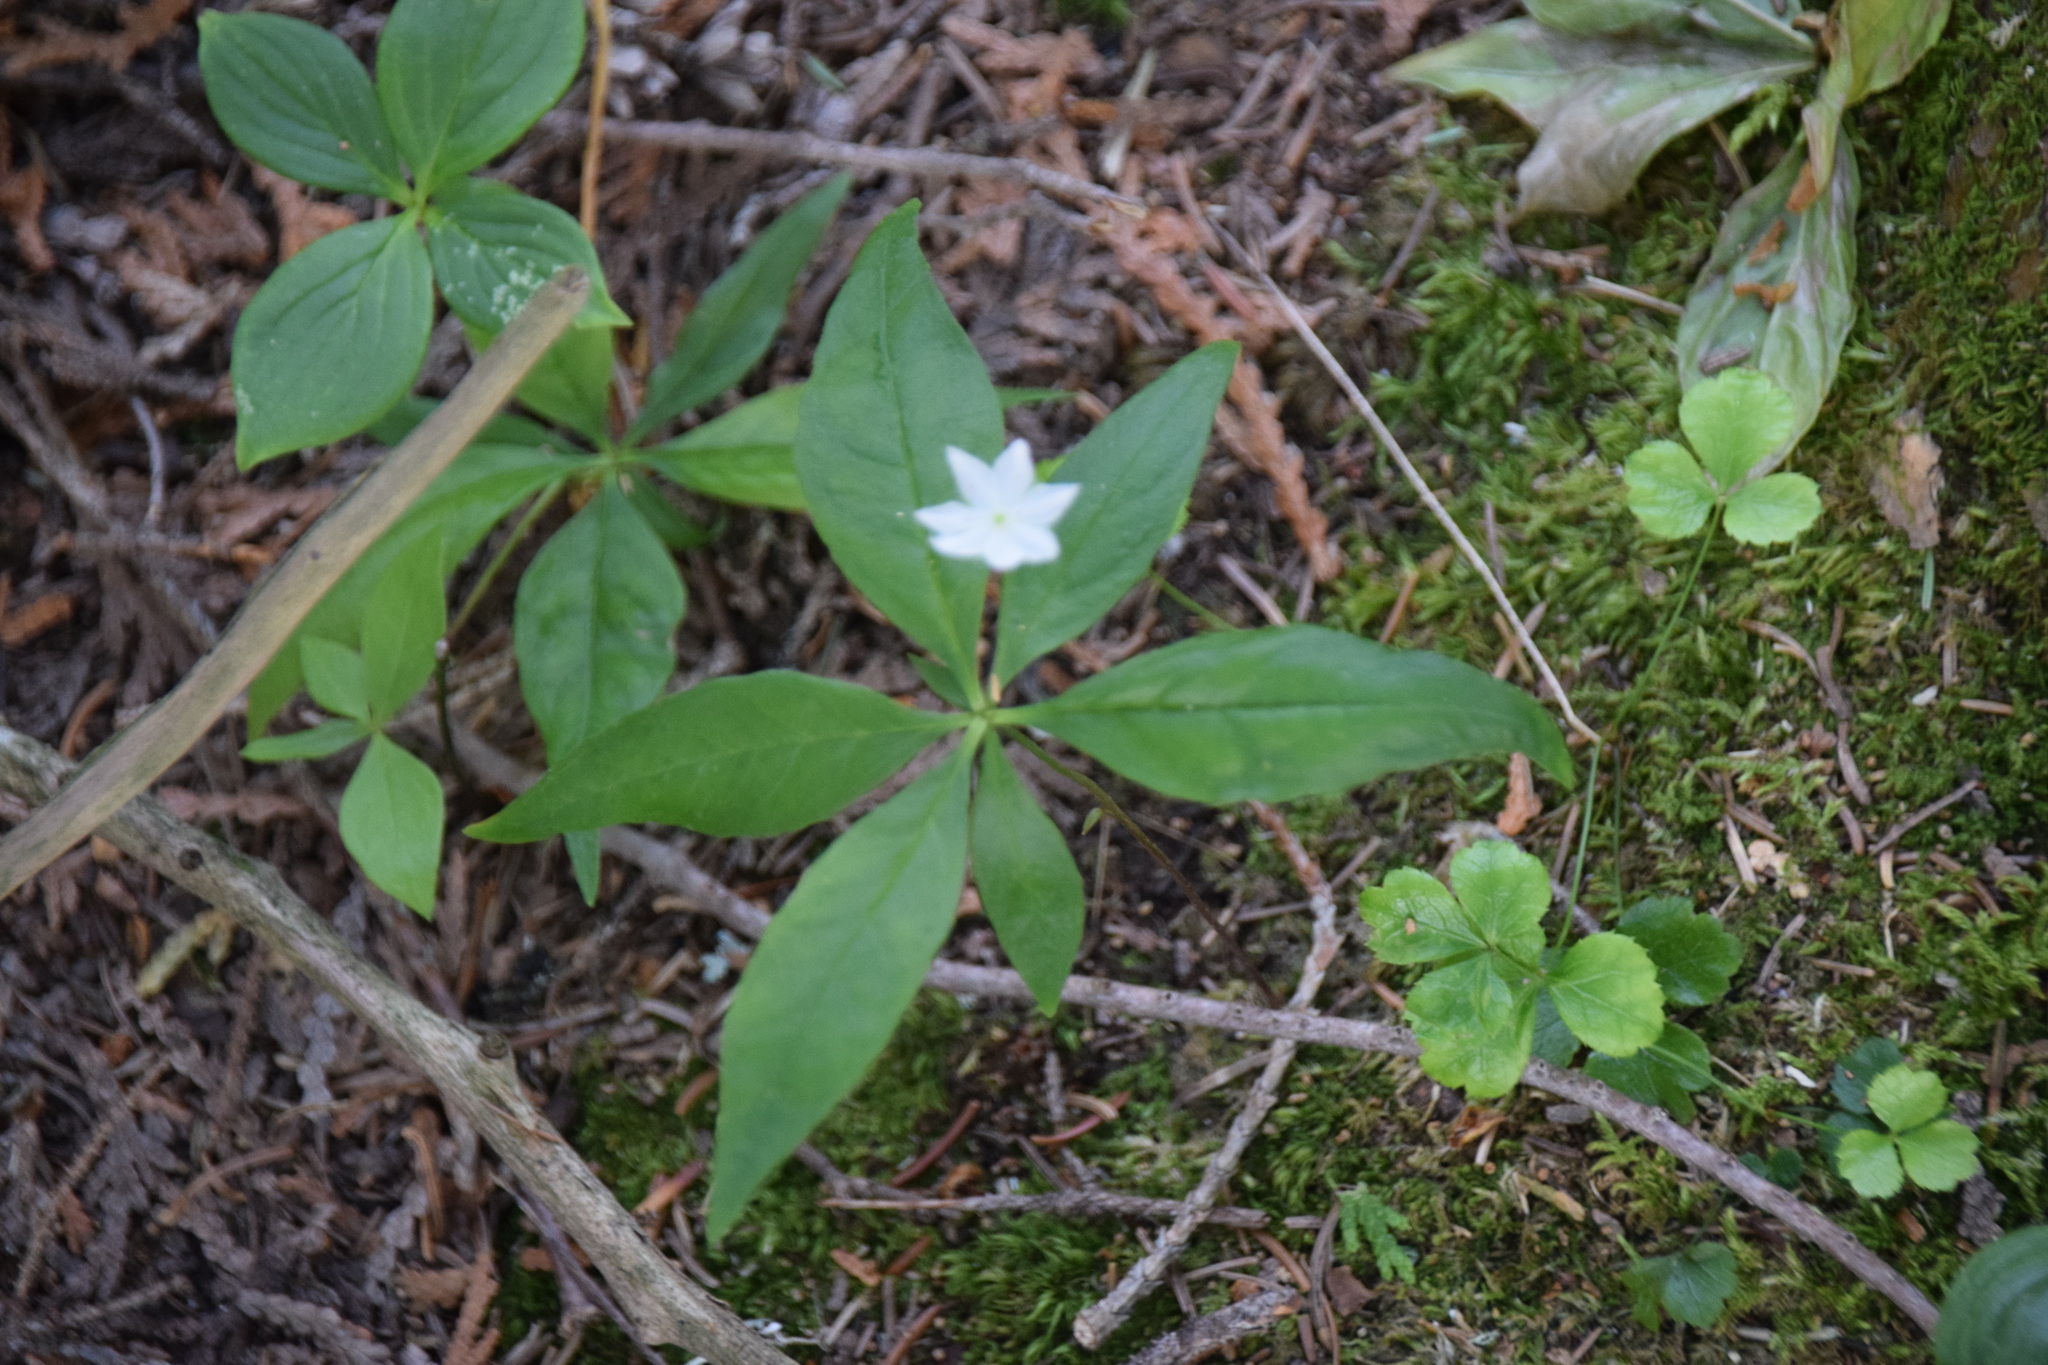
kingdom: Plantae
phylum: Tracheophyta
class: Magnoliopsida
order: Ericales
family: Primulaceae
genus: Lysimachia
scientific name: Lysimachia borealis
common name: American starflower
